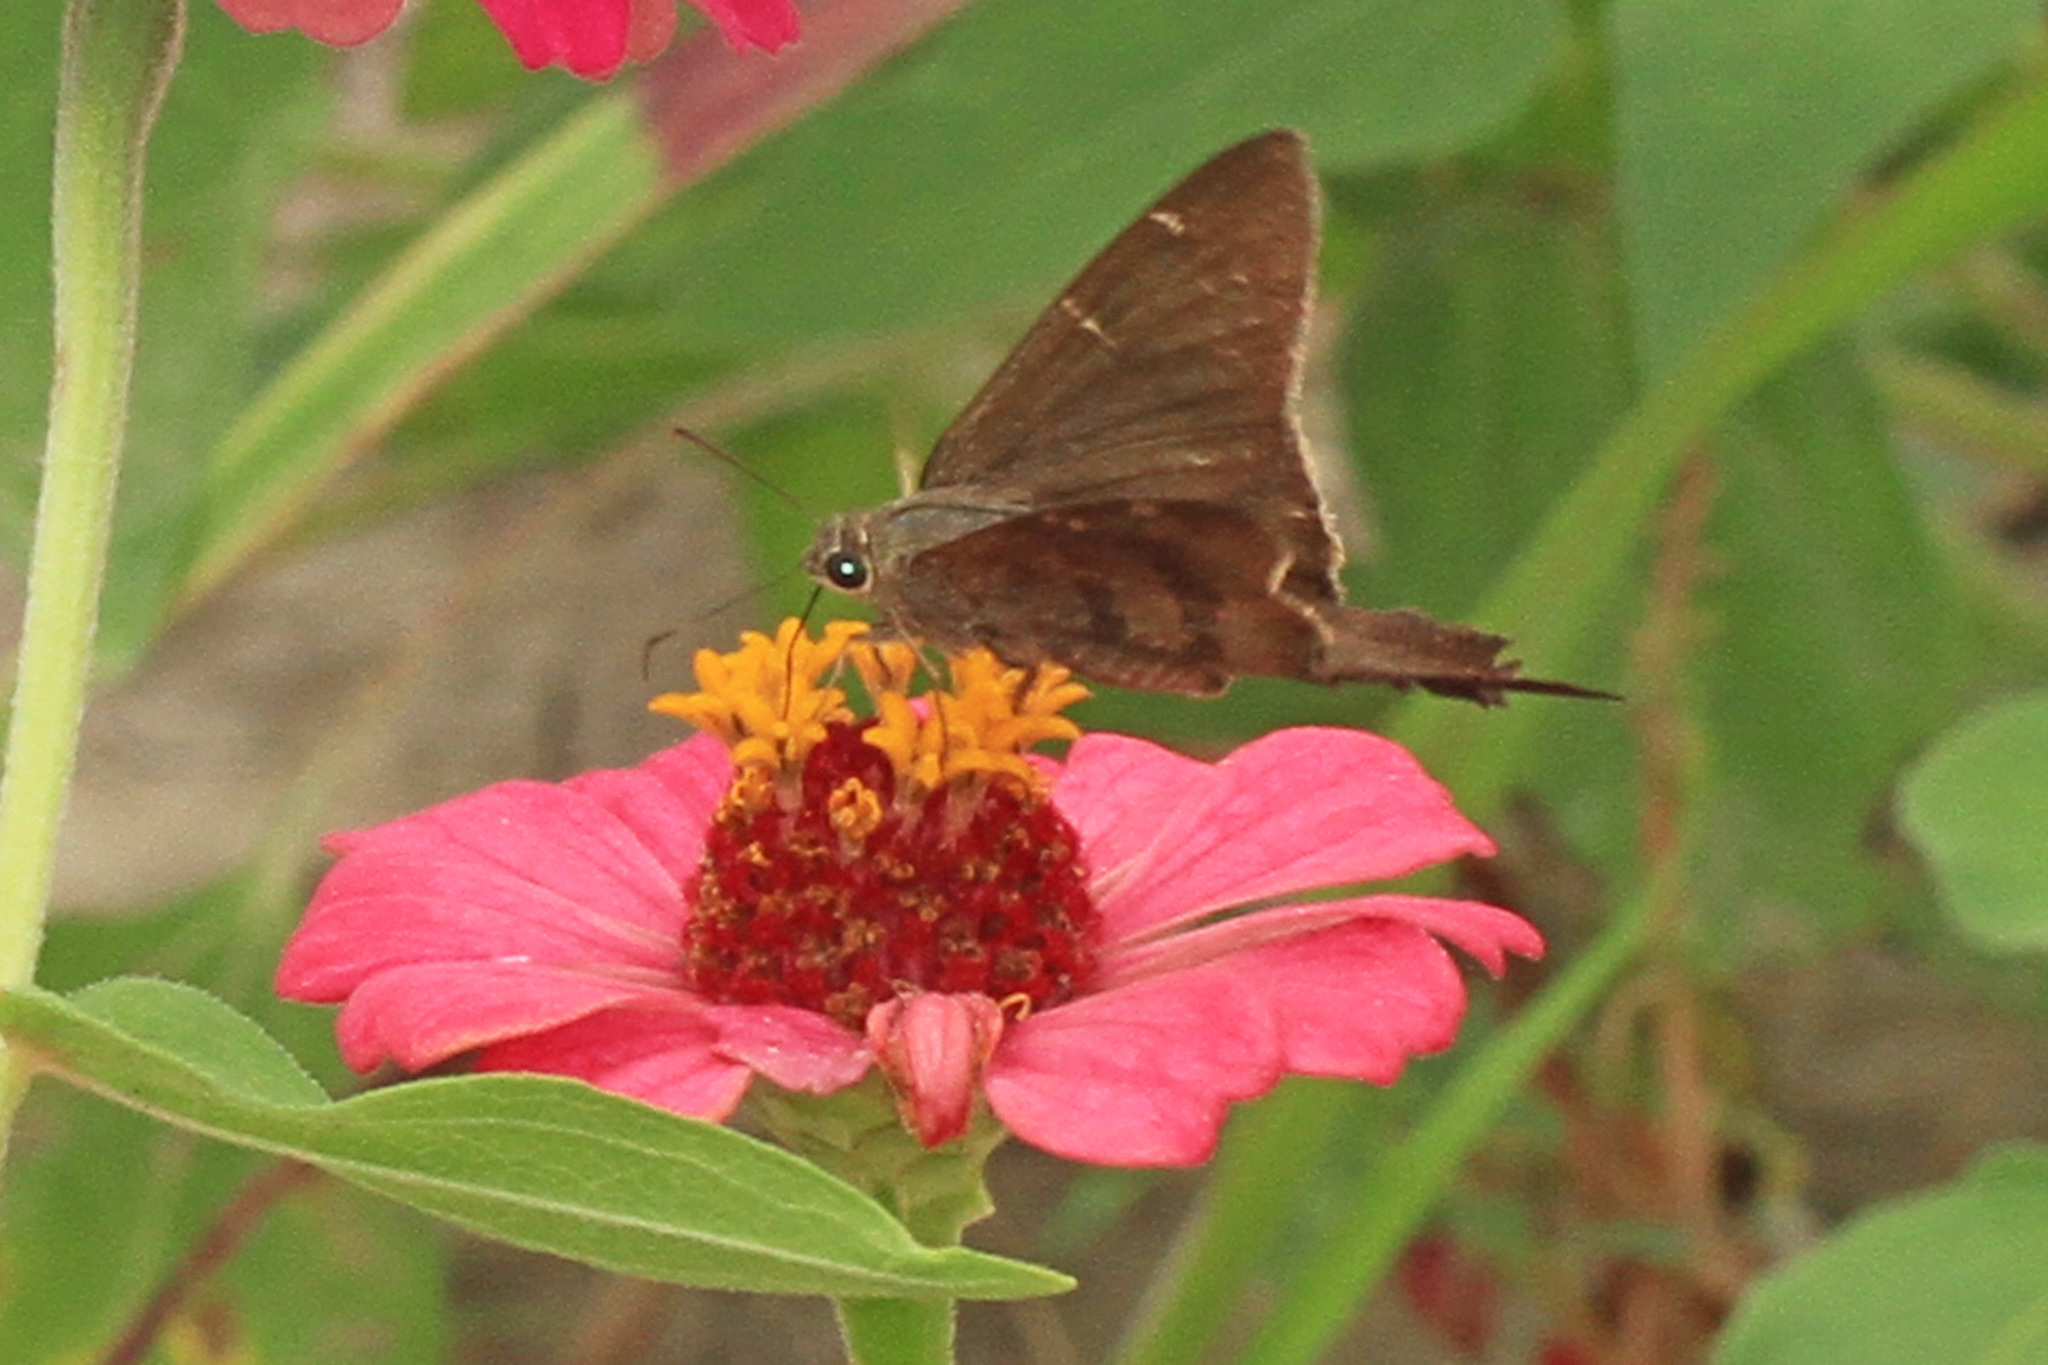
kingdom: Animalia
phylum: Arthropoda
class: Insecta
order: Lepidoptera
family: Hesperiidae
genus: Urbanus
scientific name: Urbanus procne
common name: Brown longtail
